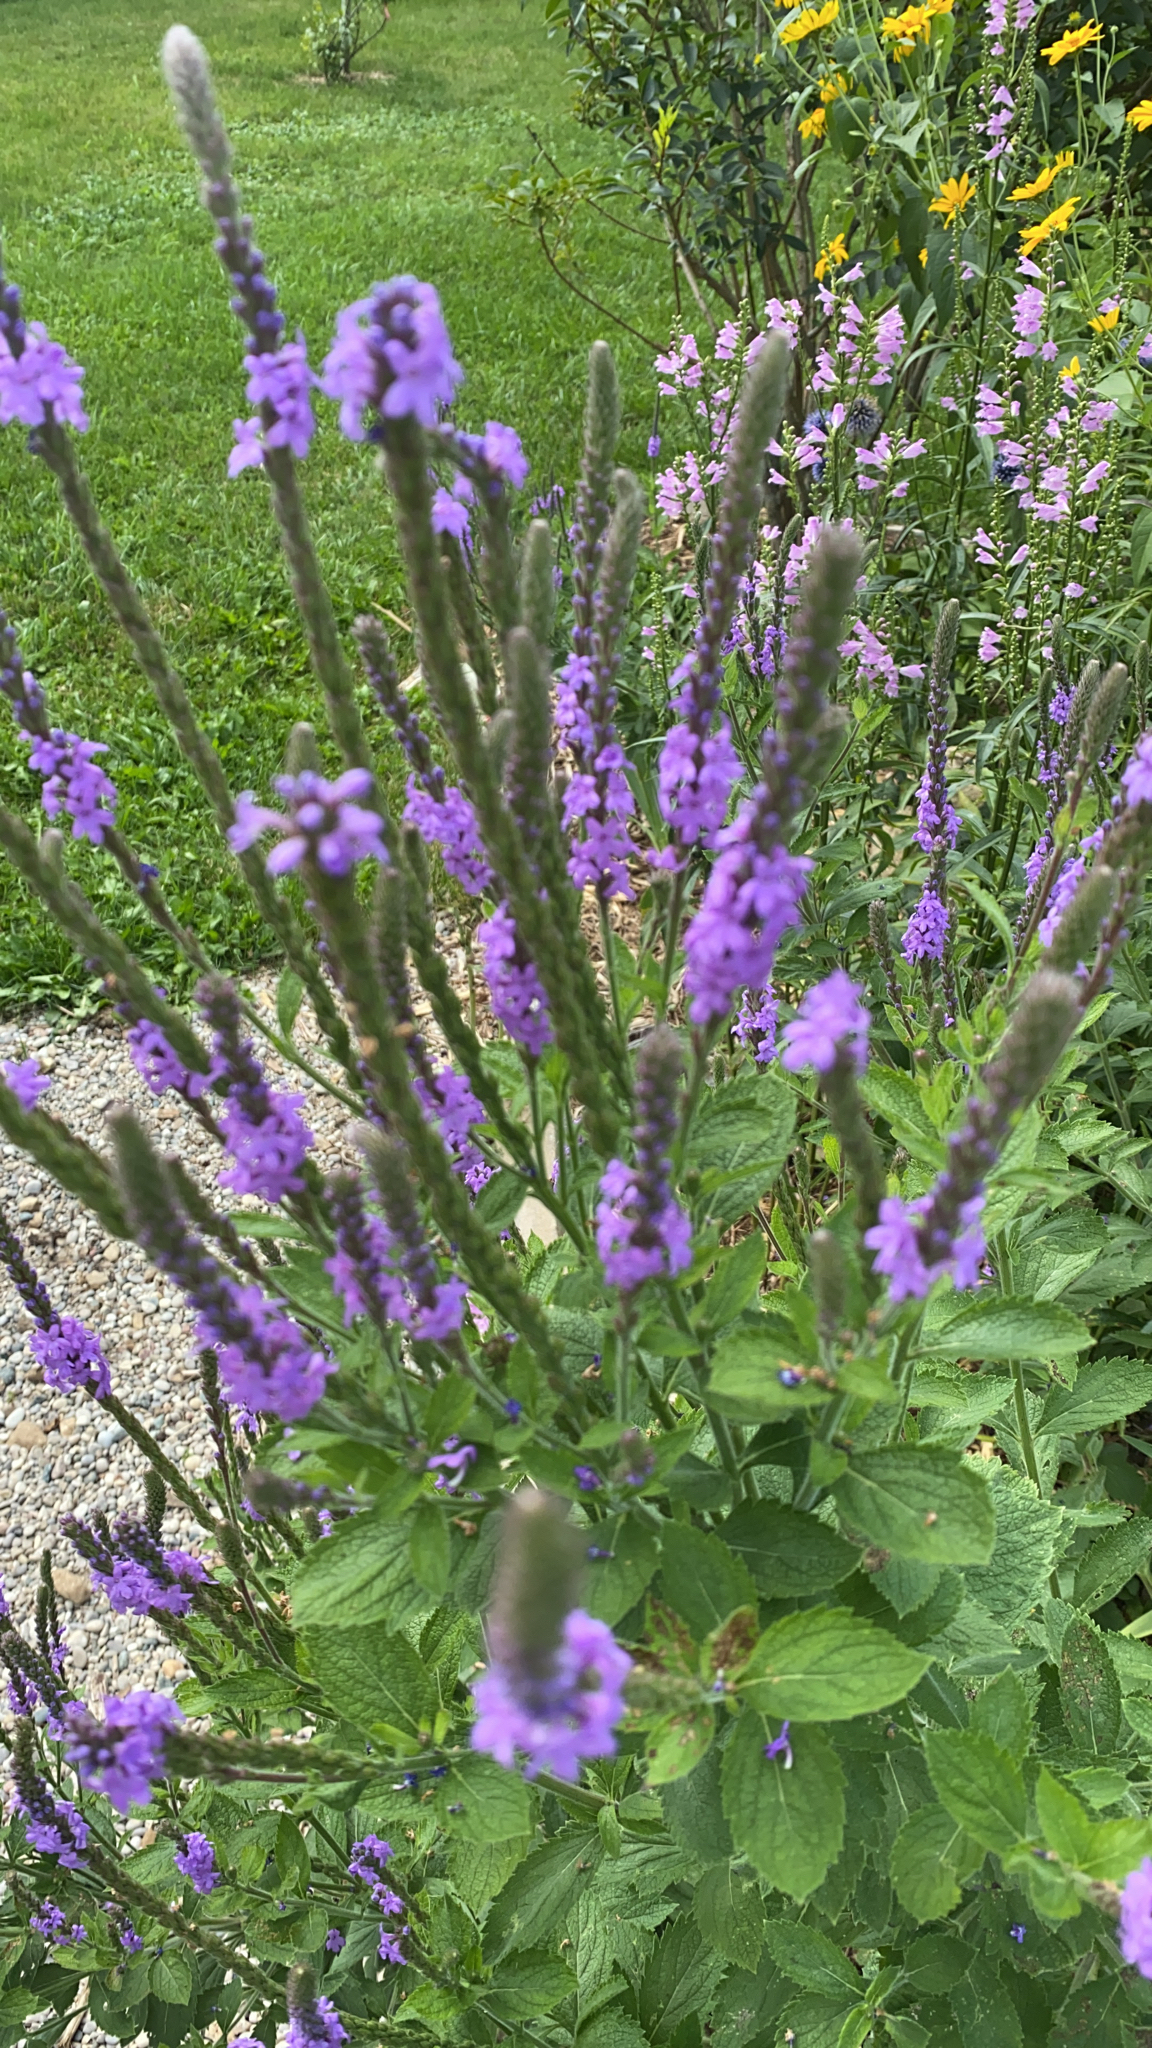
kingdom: Plantae
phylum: Tracheophyta
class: Magnoliopsida
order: Lamiales
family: Verbenaceae
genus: Verbena
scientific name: Verbena stricta
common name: Hoary vervain
